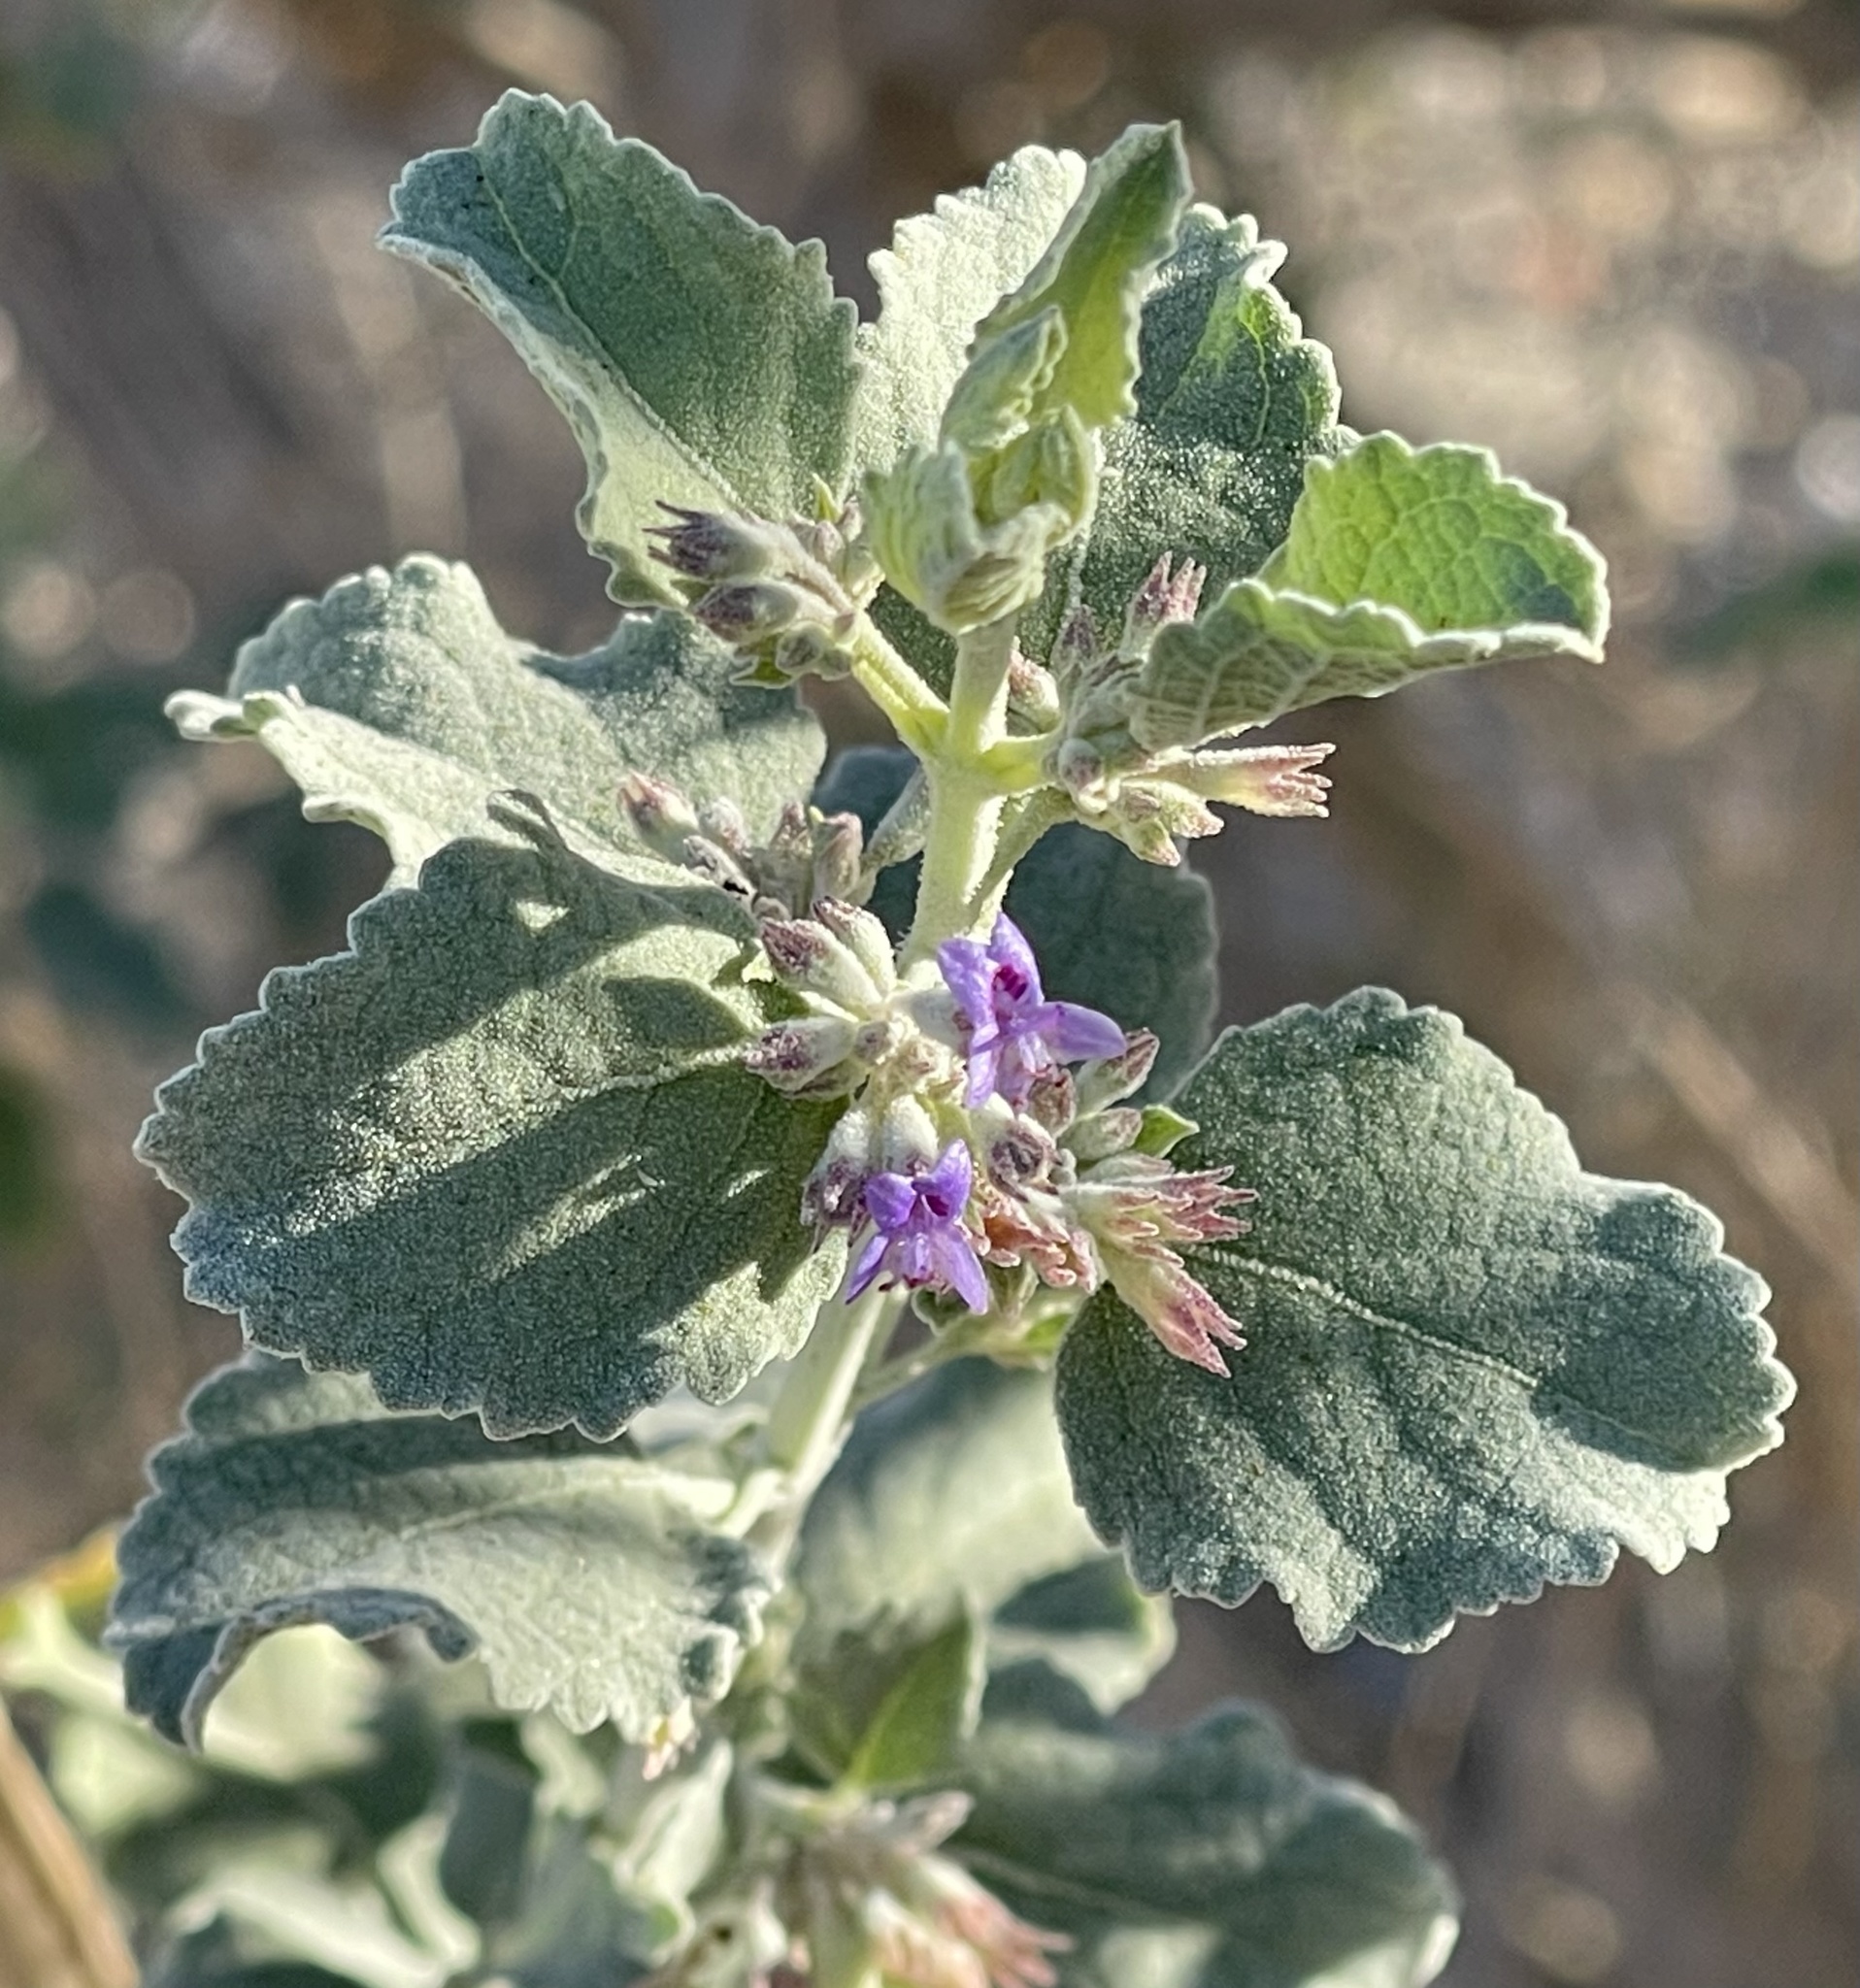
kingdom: Plantae
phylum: Tracheophyta
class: Magnoliopsida
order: Lamiales
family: Lamiaceae
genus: Condea
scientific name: Condea emoryi
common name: Chia
